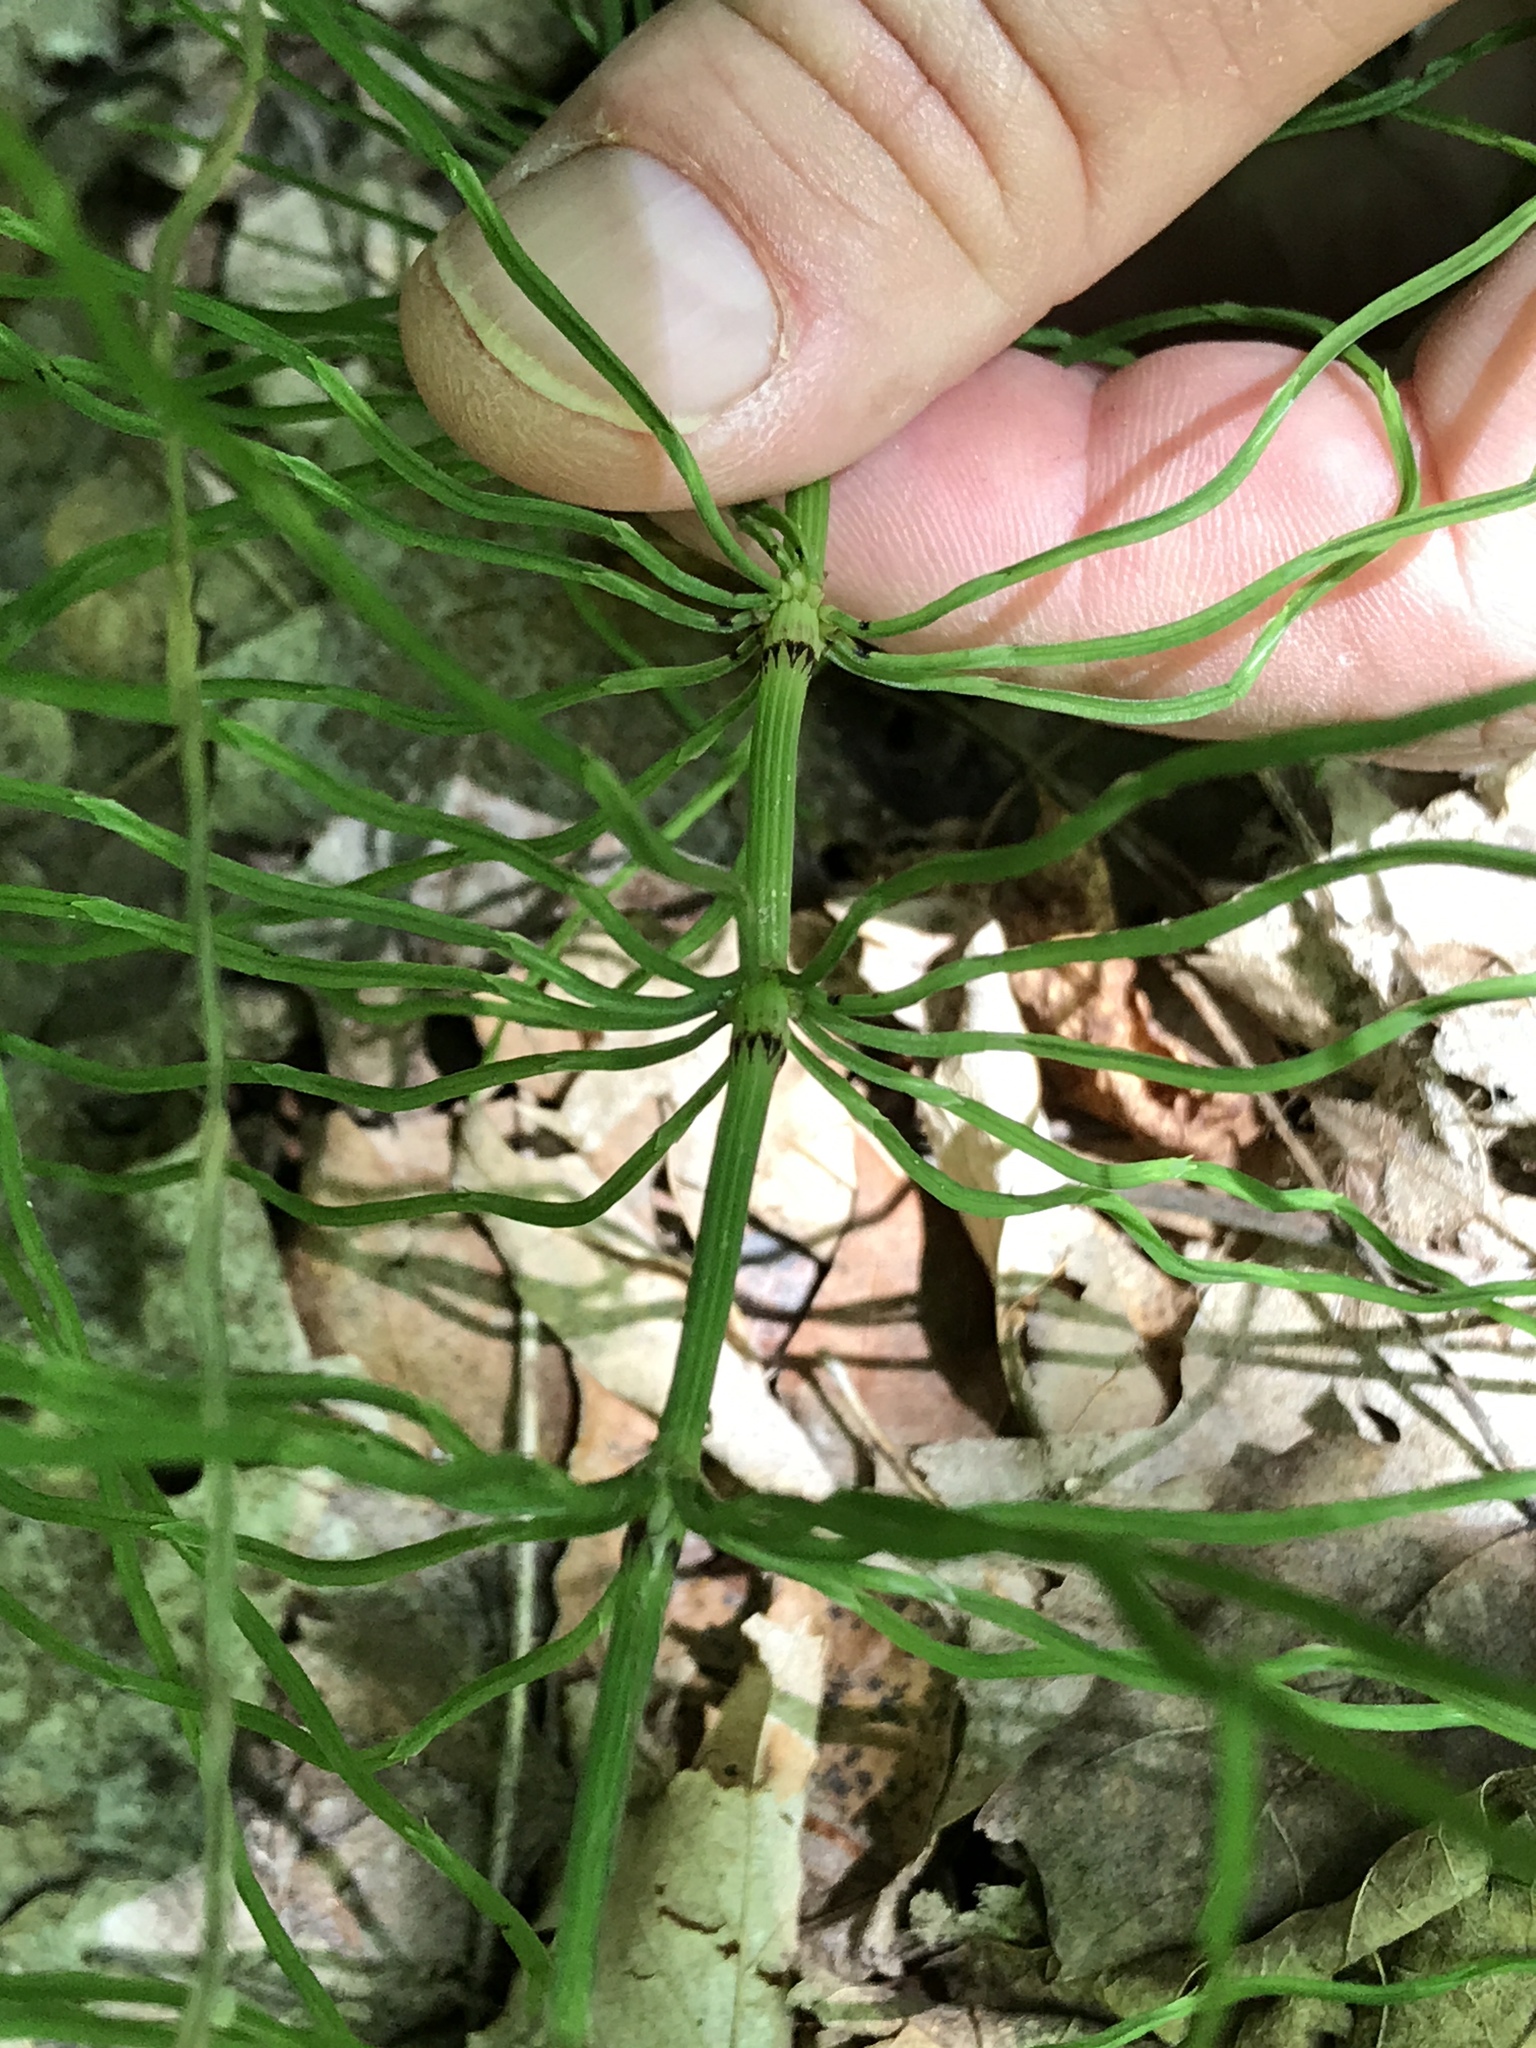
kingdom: Plantae
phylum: Tracheophyta
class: Polypodiopsida
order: Equisetales
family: Equisetaceae
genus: Equisetum
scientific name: Equisetum arvense
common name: Field horsetail
